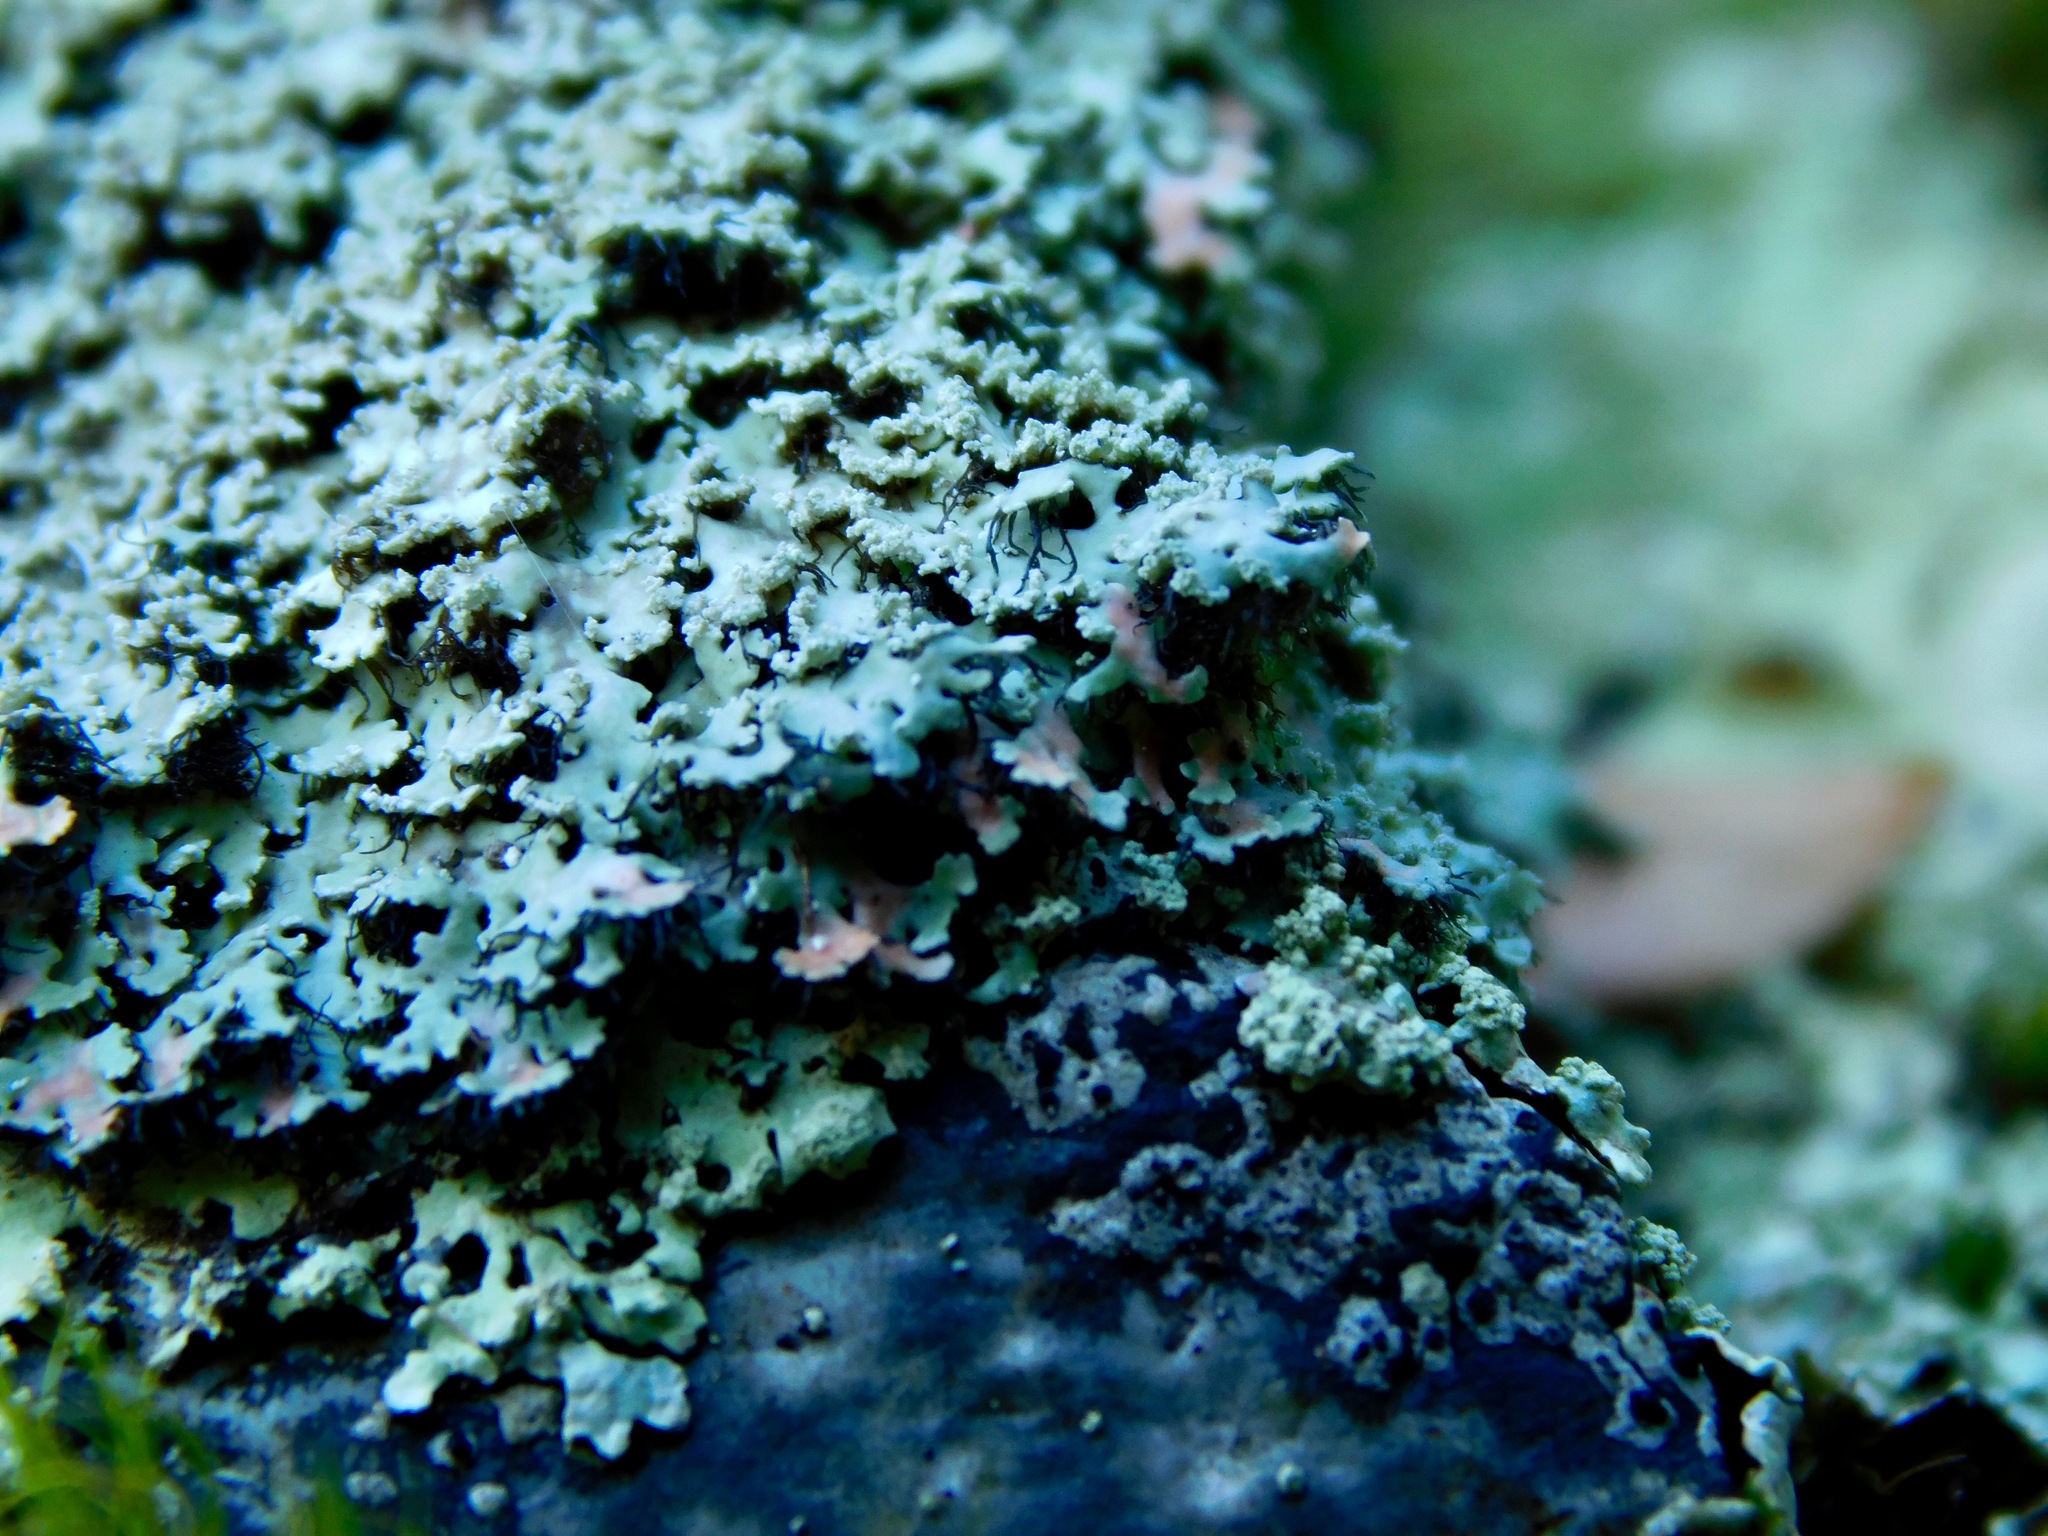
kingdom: Fungi
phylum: Ascomycota
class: Lecanoromycetes
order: Caliciales
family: Physciaceae
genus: Polyblastidium
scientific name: Polyblastidium squamulosum
